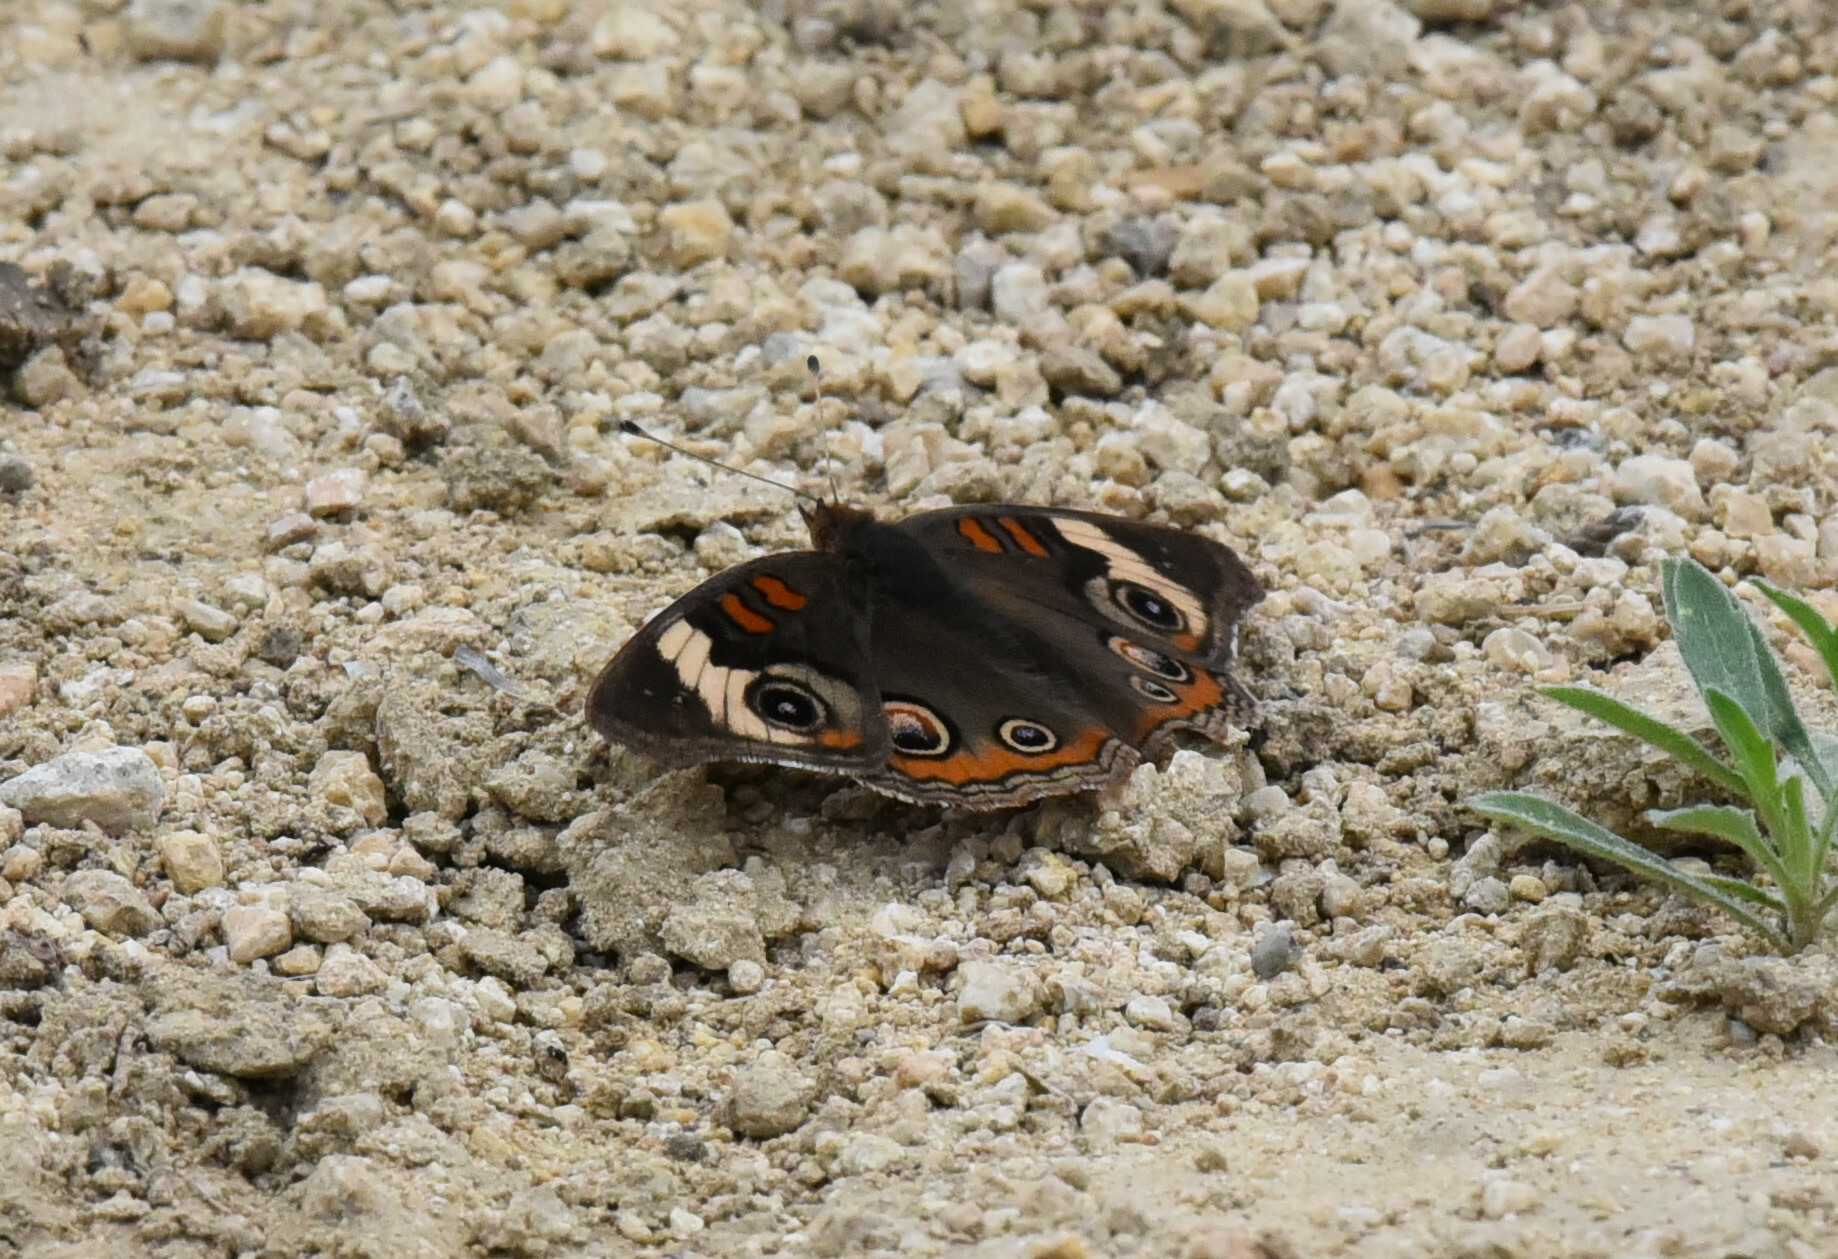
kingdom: Animalia
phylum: Arthropoda
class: Insecta
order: Lepidoptera
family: Nymphalidae
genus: Junonia
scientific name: Junonia coenia
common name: Common buckeye
